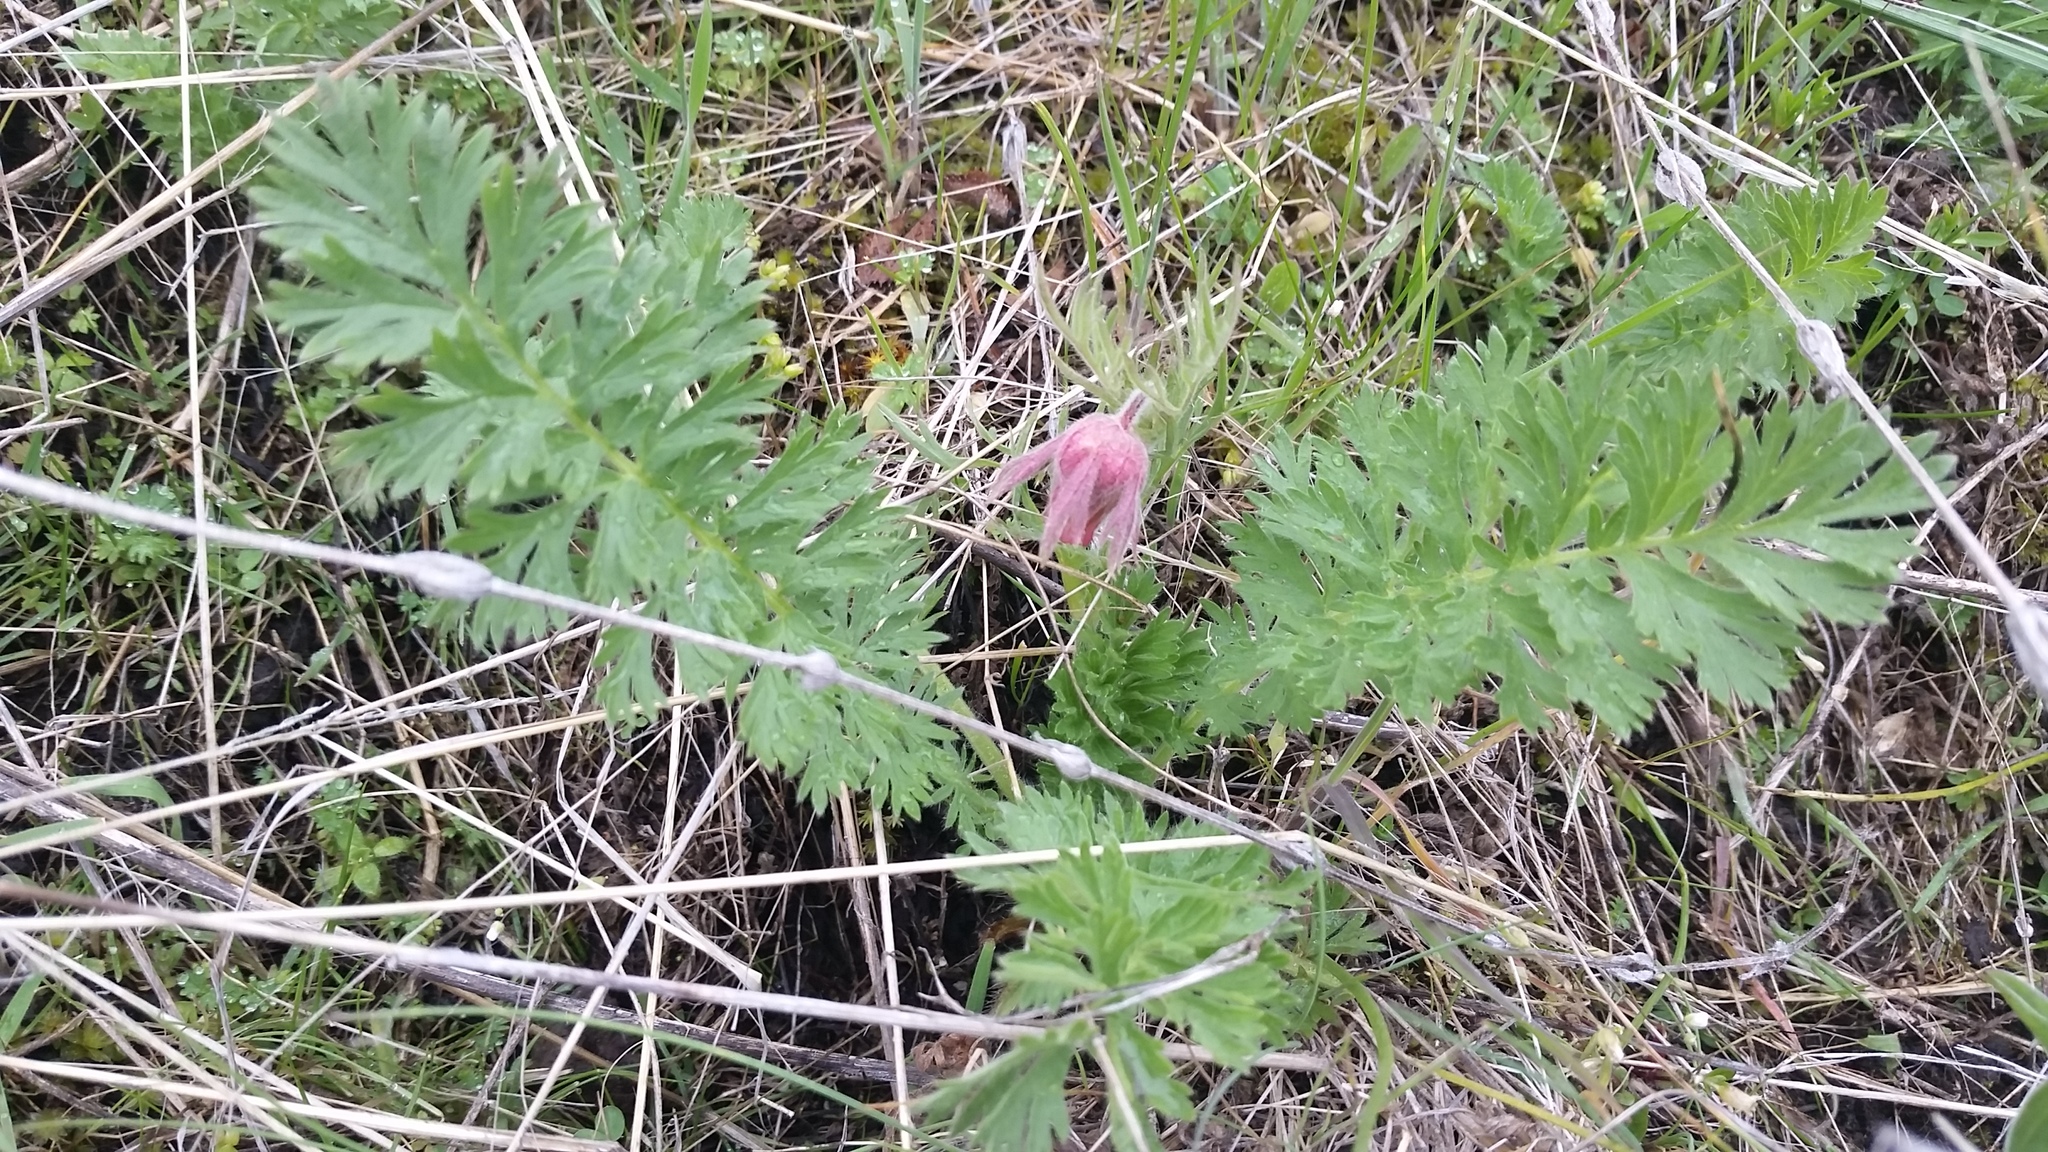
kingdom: Plantae
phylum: Tracheophyta
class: Magnoliopsida
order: Rosales
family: Rosaceae
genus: Geum
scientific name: Geum triflorum
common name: Old man's whiskers
